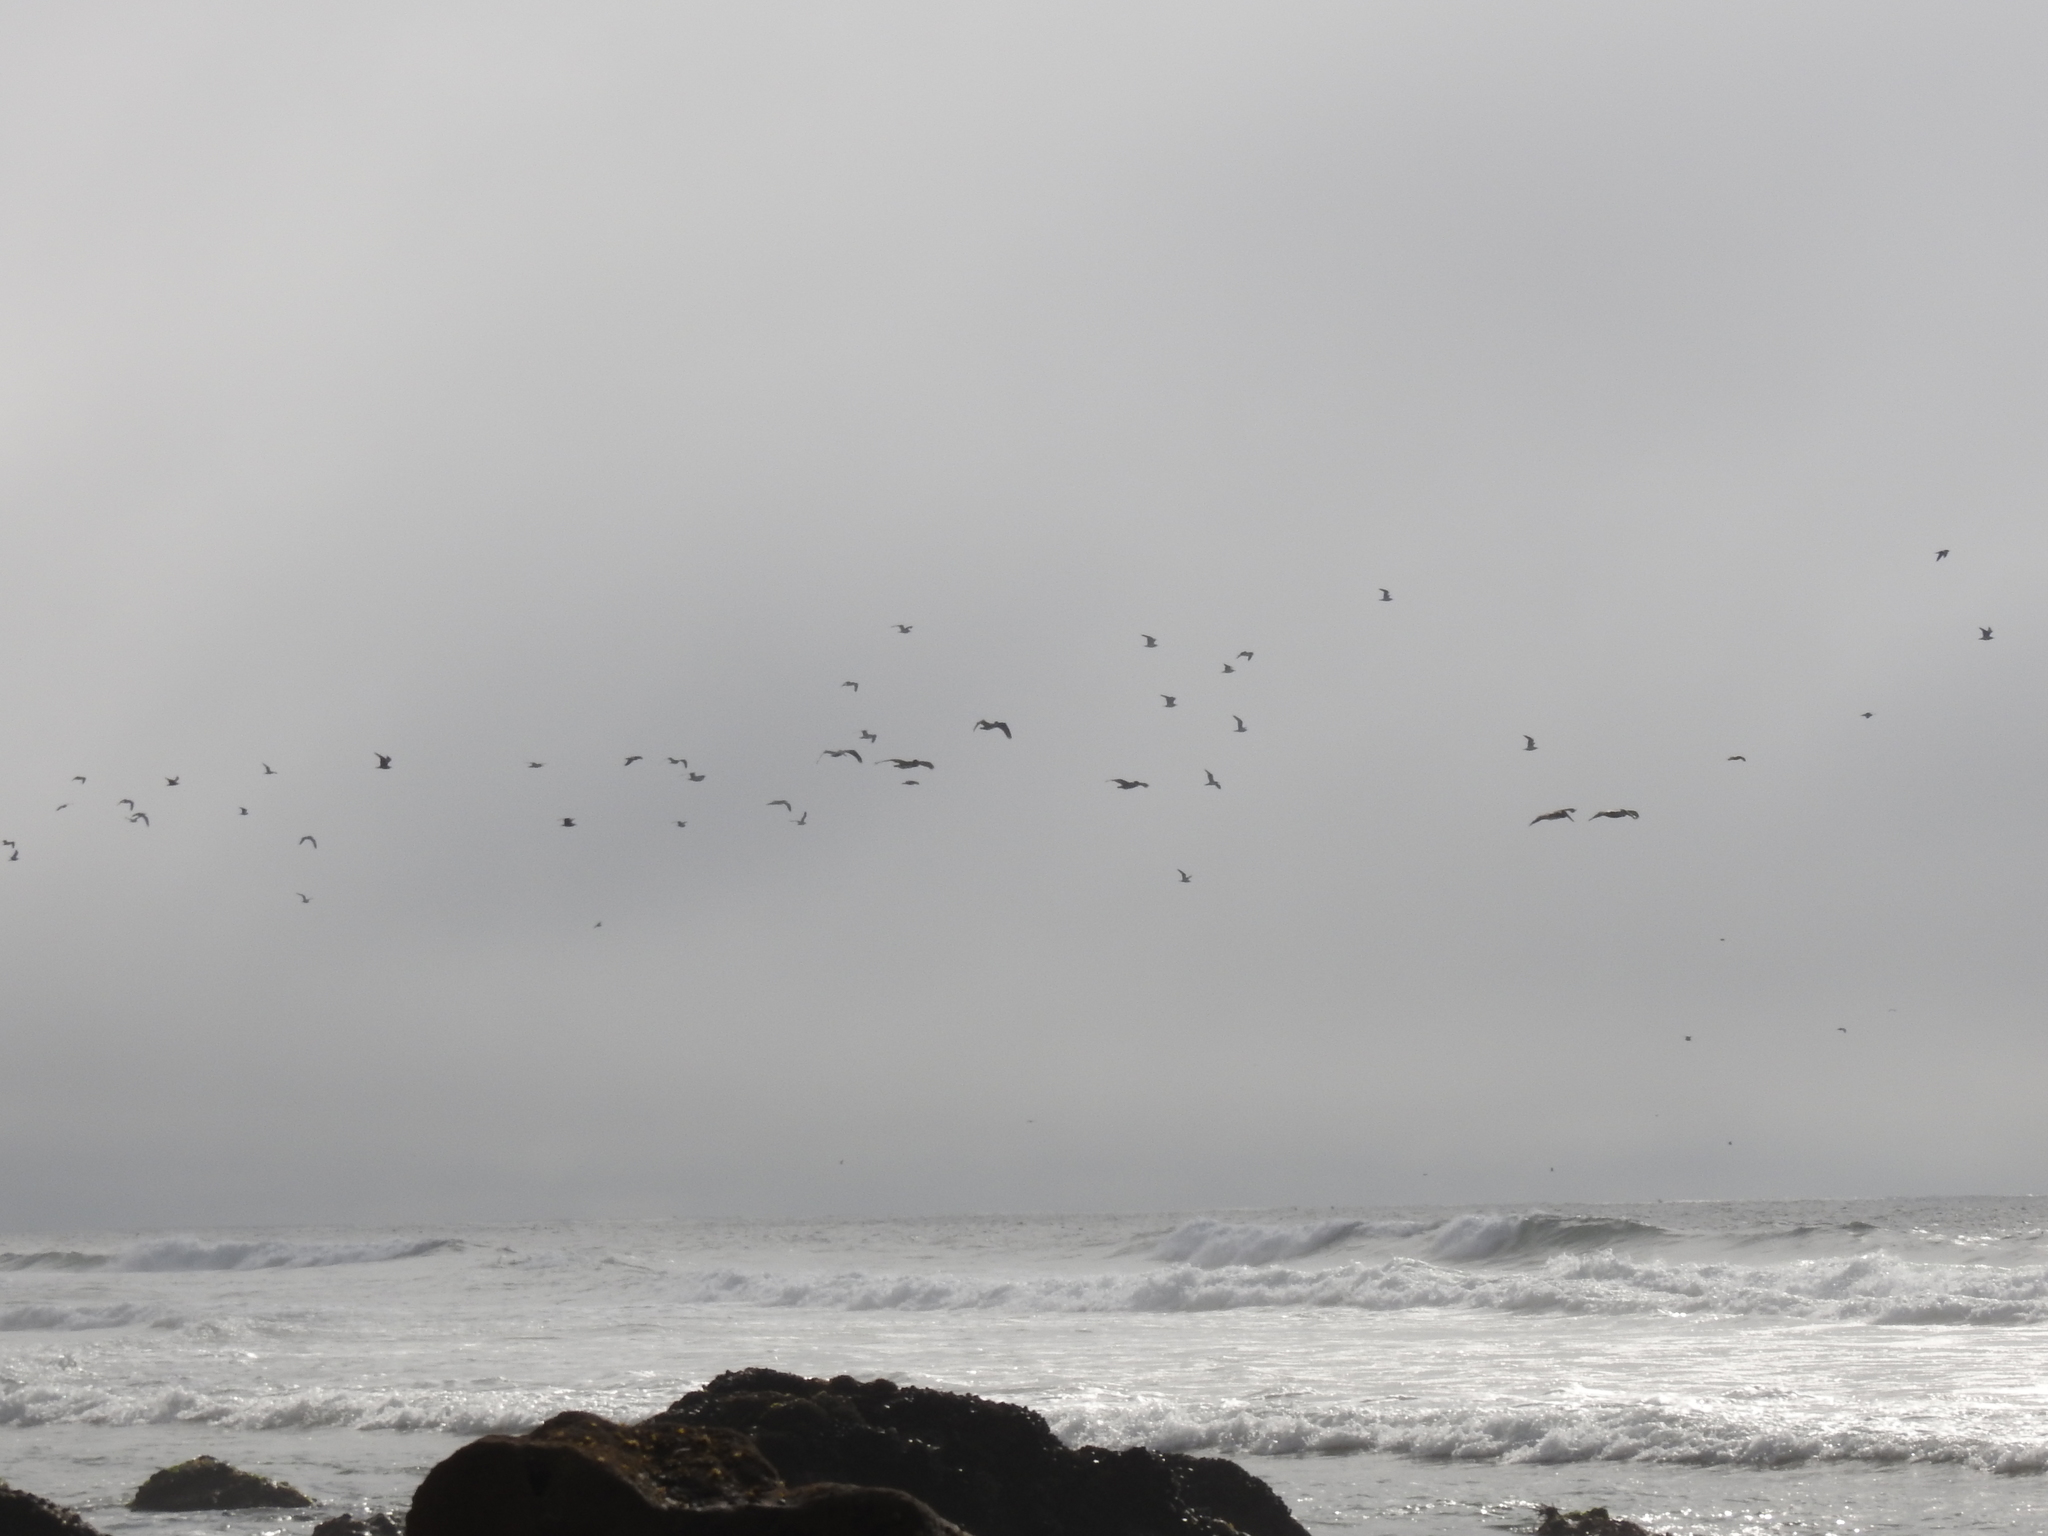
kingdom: Animalia
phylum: Chordata
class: Aves
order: Pelecaniformes
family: Pelecanidae
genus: Pelecanus
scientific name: Pelecanus occidentalis
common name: Brown pelican
